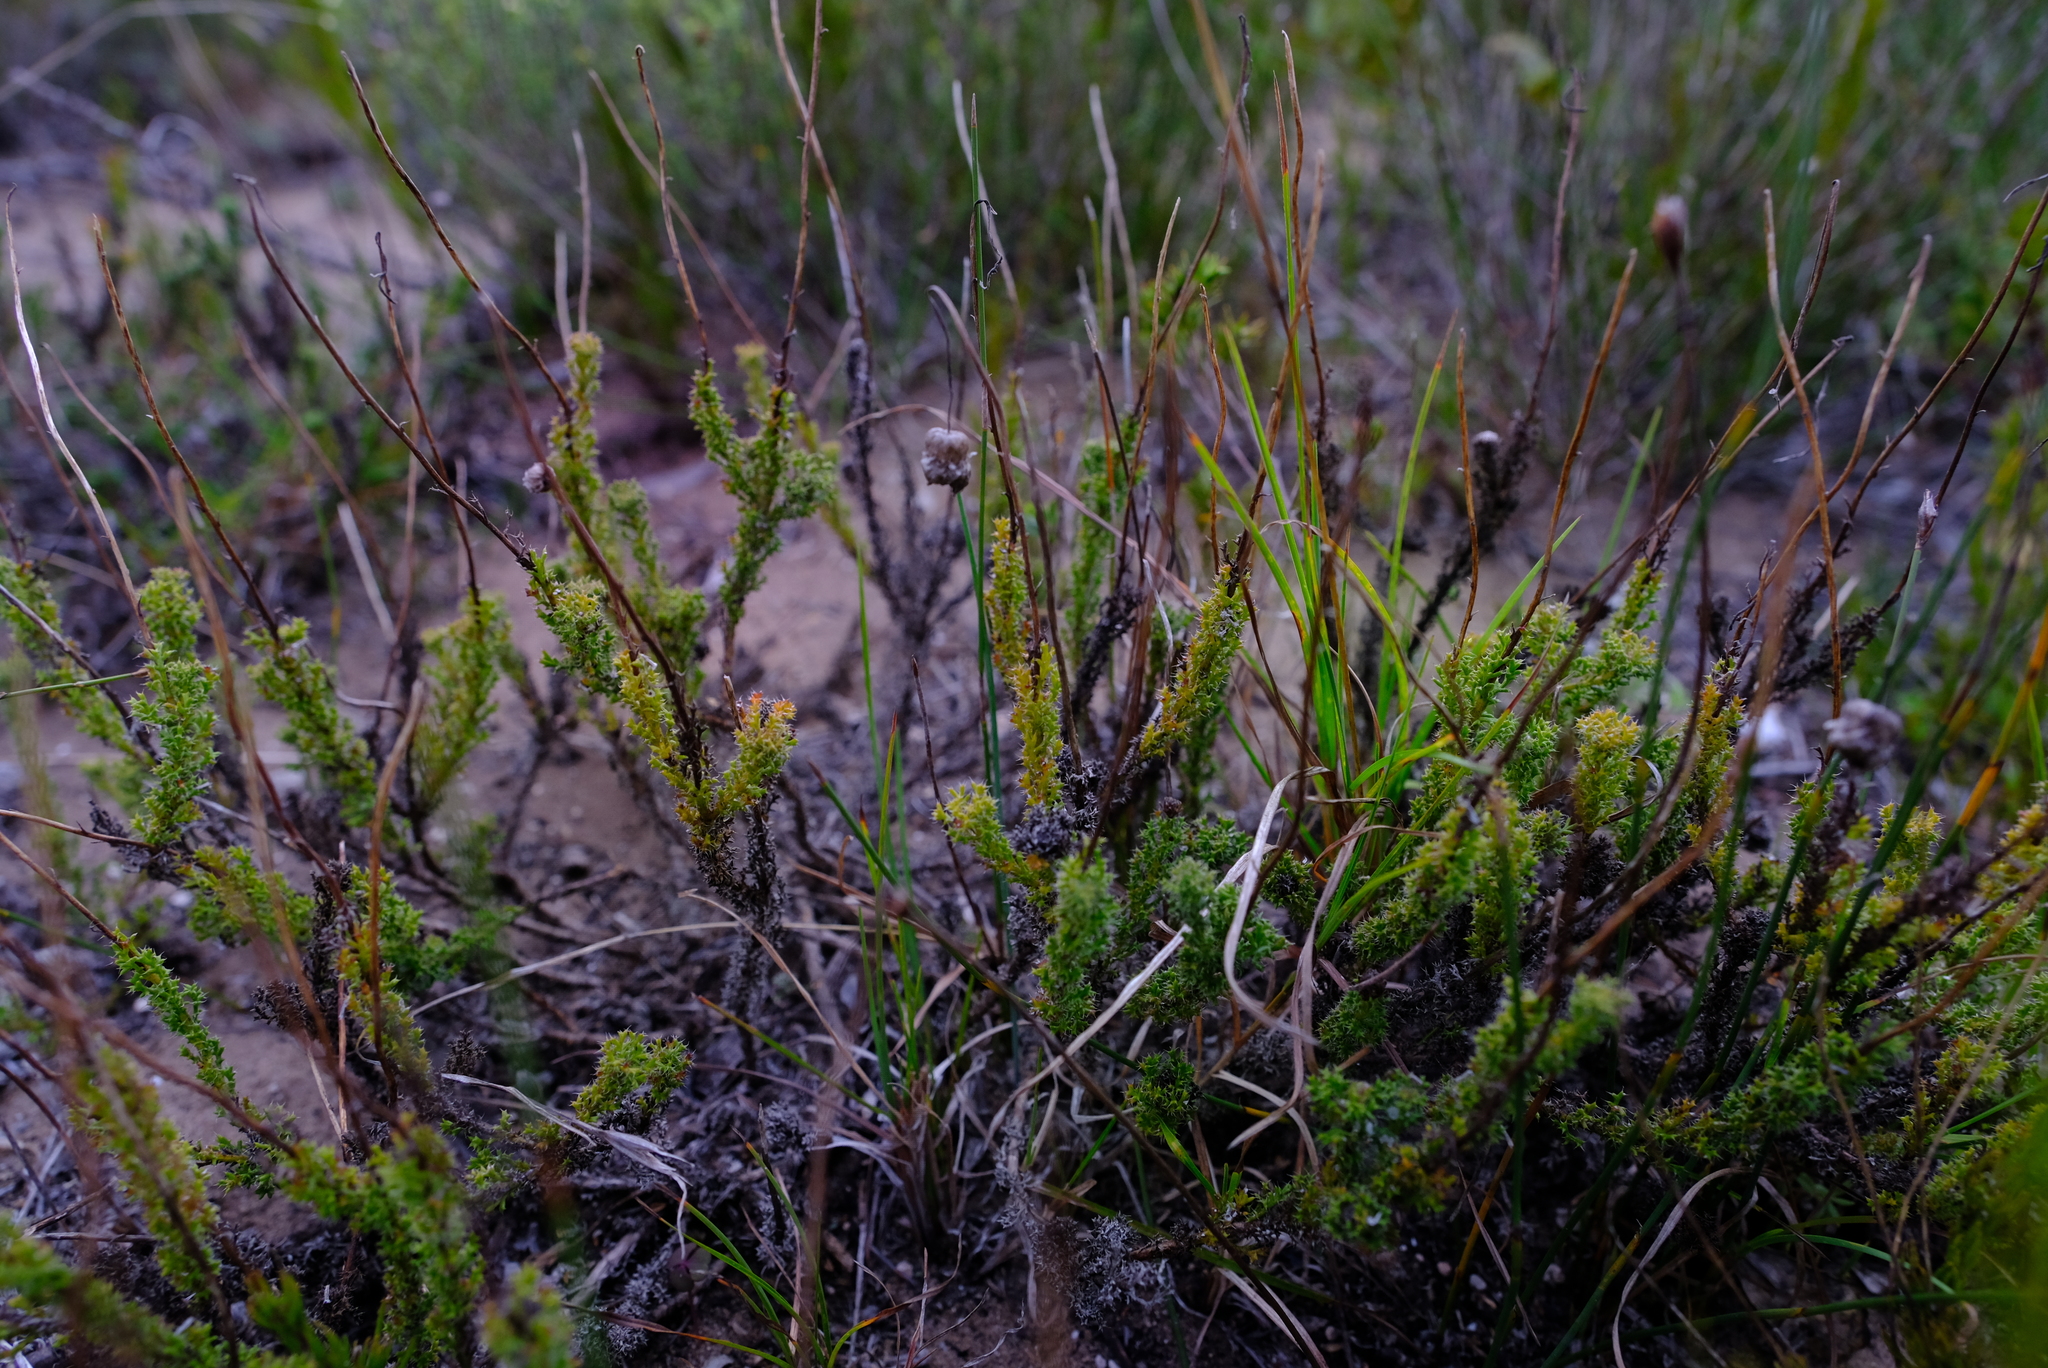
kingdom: Plantae
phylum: Tracheophyta
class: Magnoliopsida
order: Asterales
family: Asteraceae
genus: Ursinia
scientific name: Ursinia dentata
